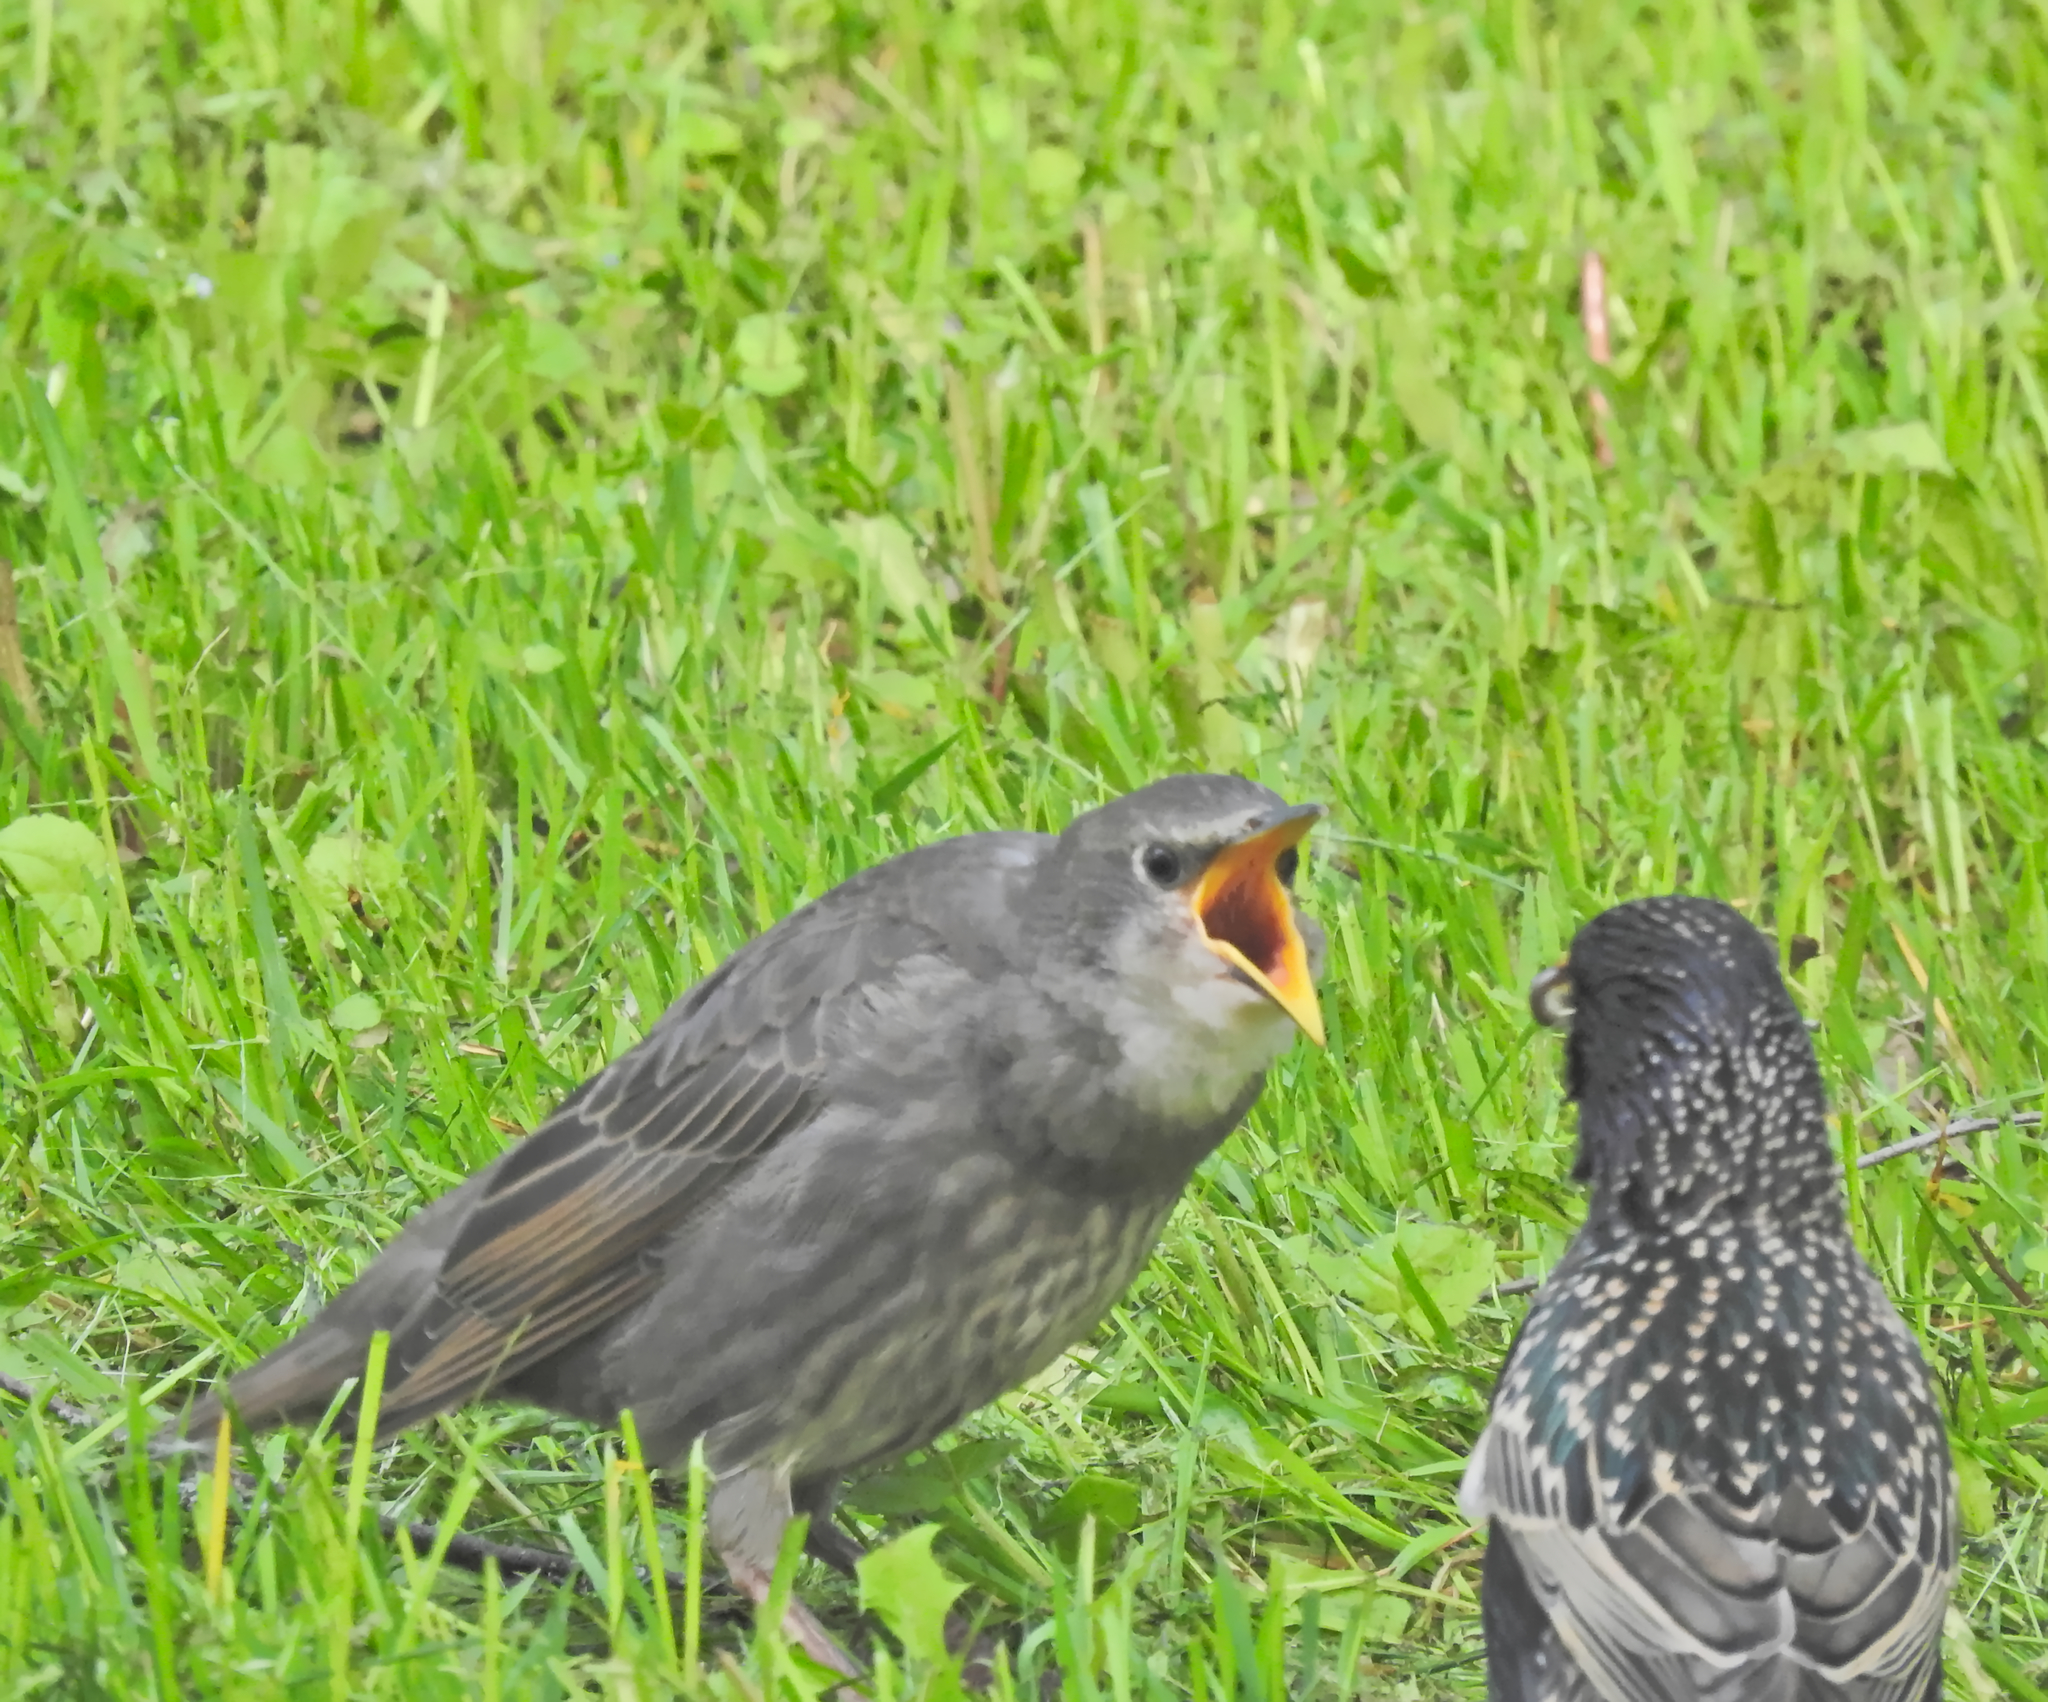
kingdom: Animalia
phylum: Chordata
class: Aves
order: Passeriformes
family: Sturnidae
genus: Sturnus
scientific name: Sturnus vulgaris
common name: Common starling
